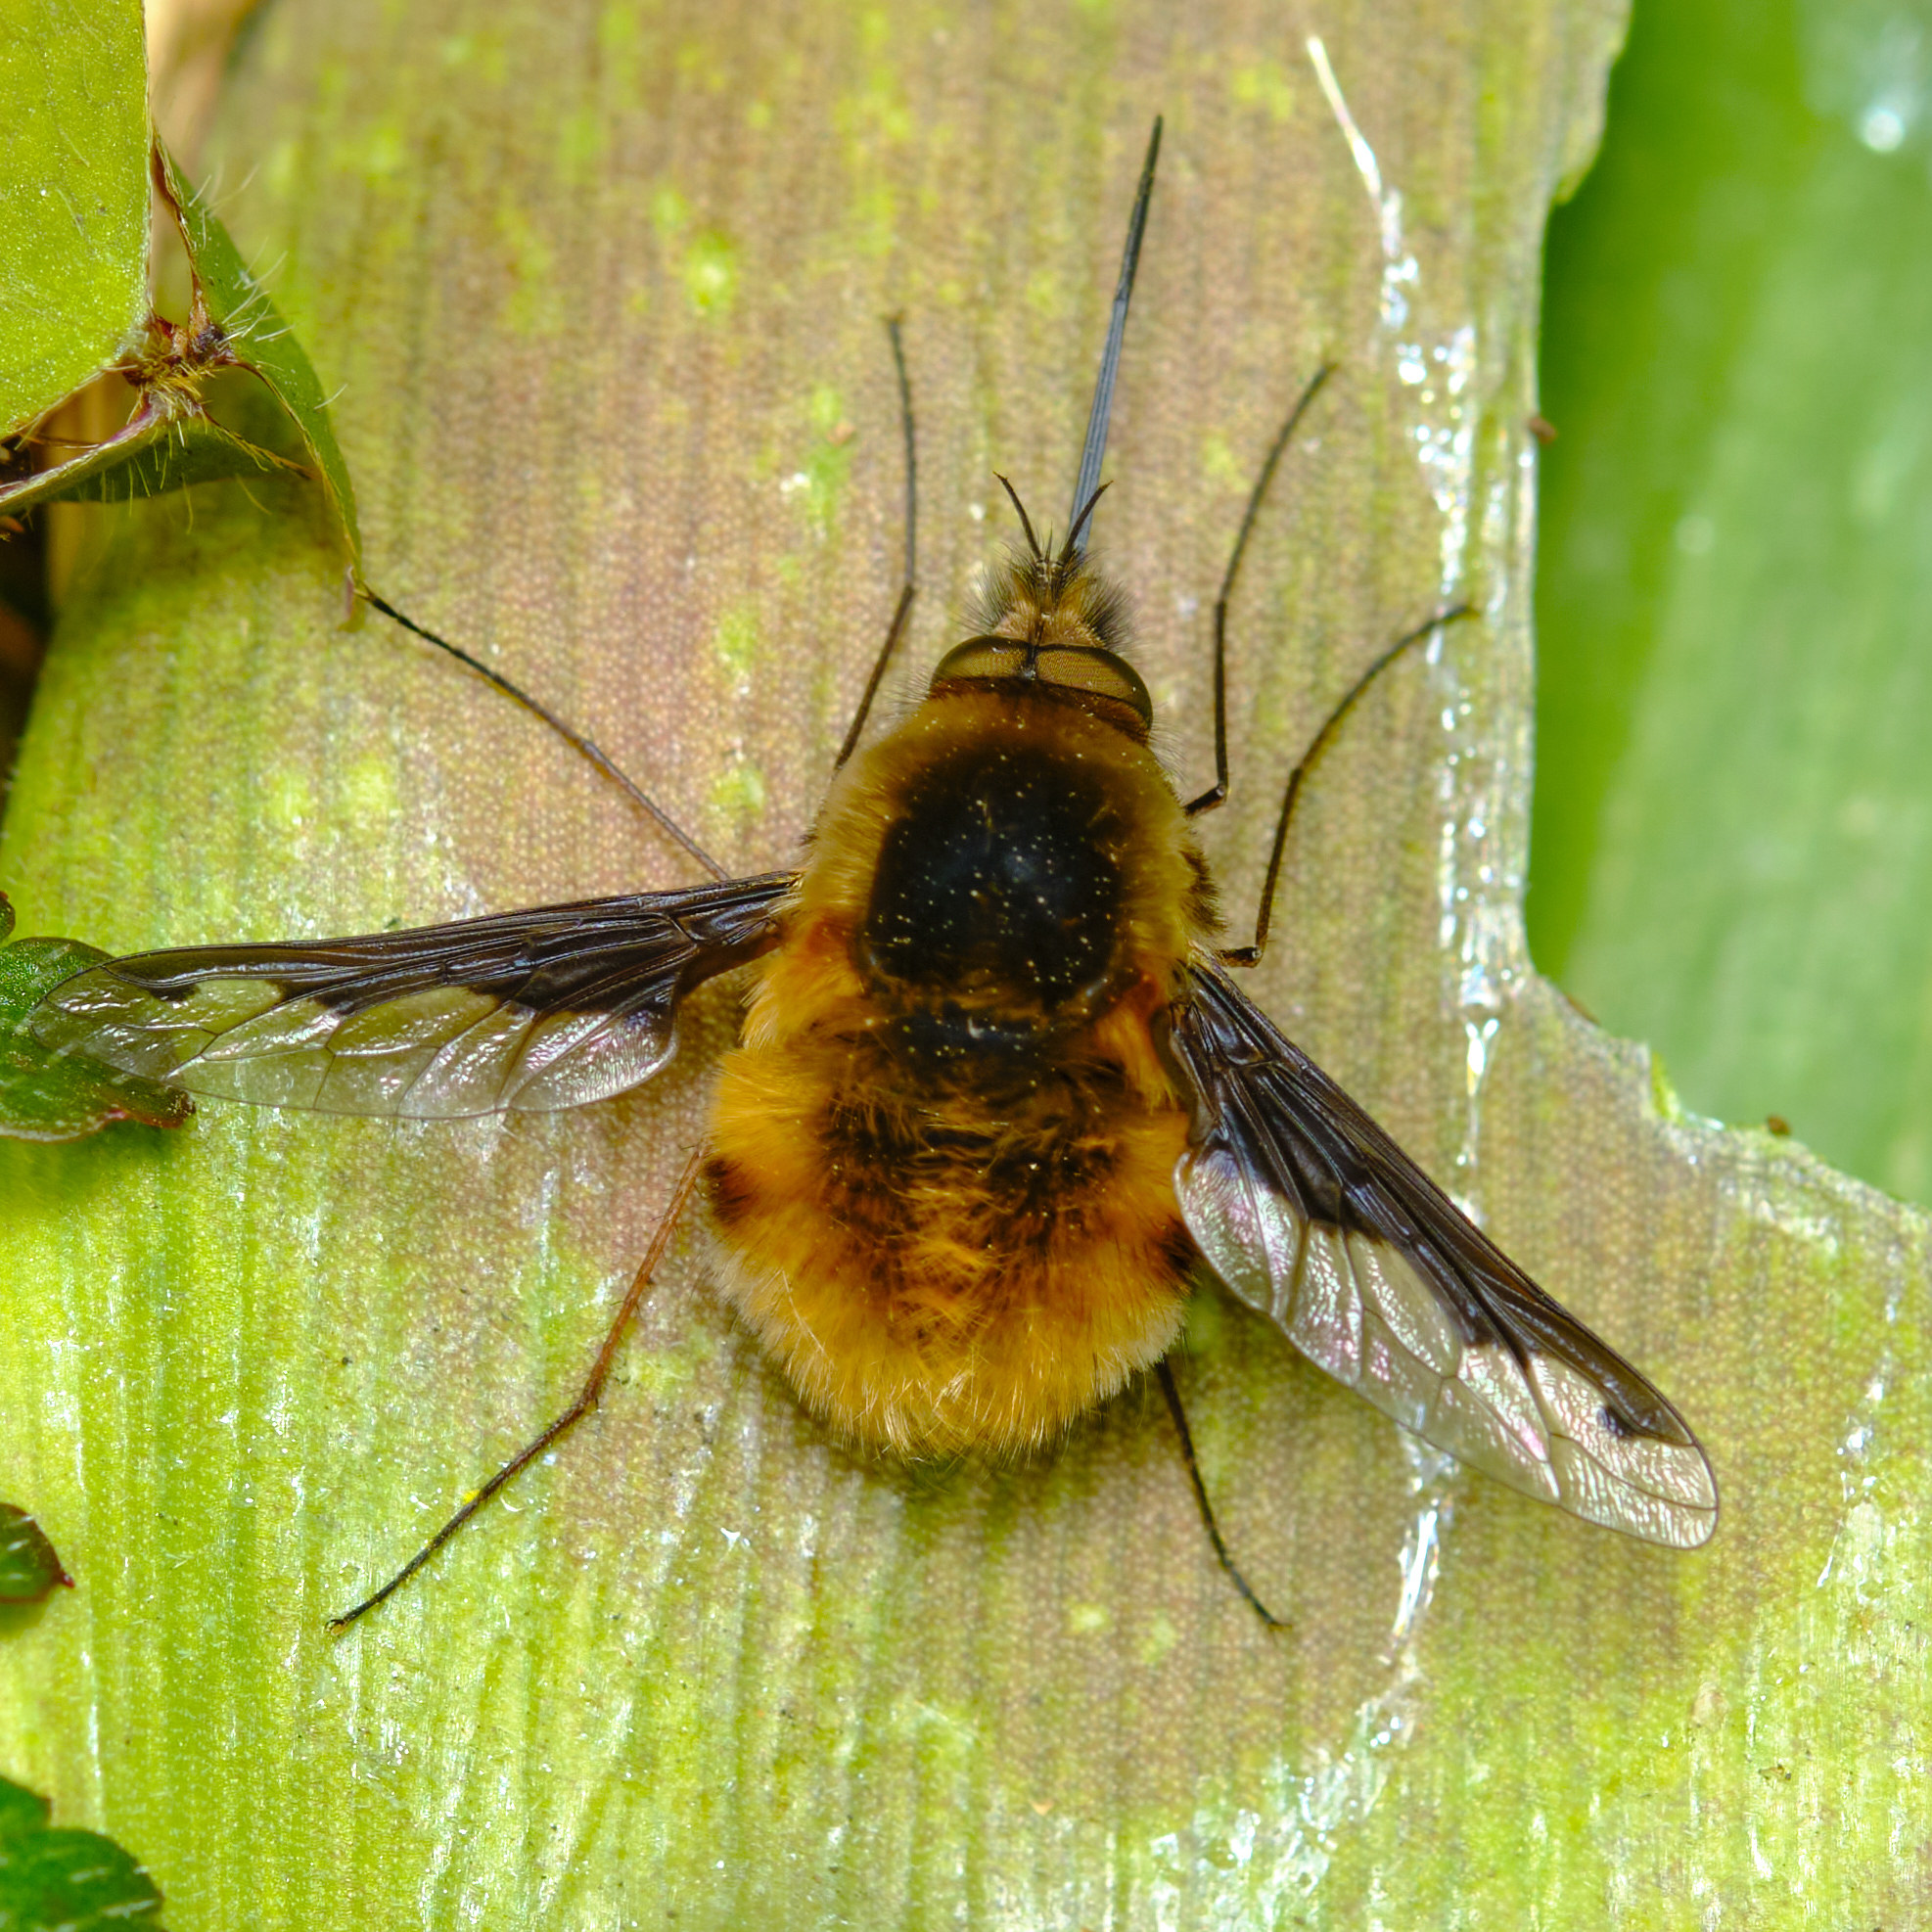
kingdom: Animalia
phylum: Arthropoda
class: Insecta
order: Diptera
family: Bombyliidae
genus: Bombylius
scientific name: Bombylius major
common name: Bee fly
